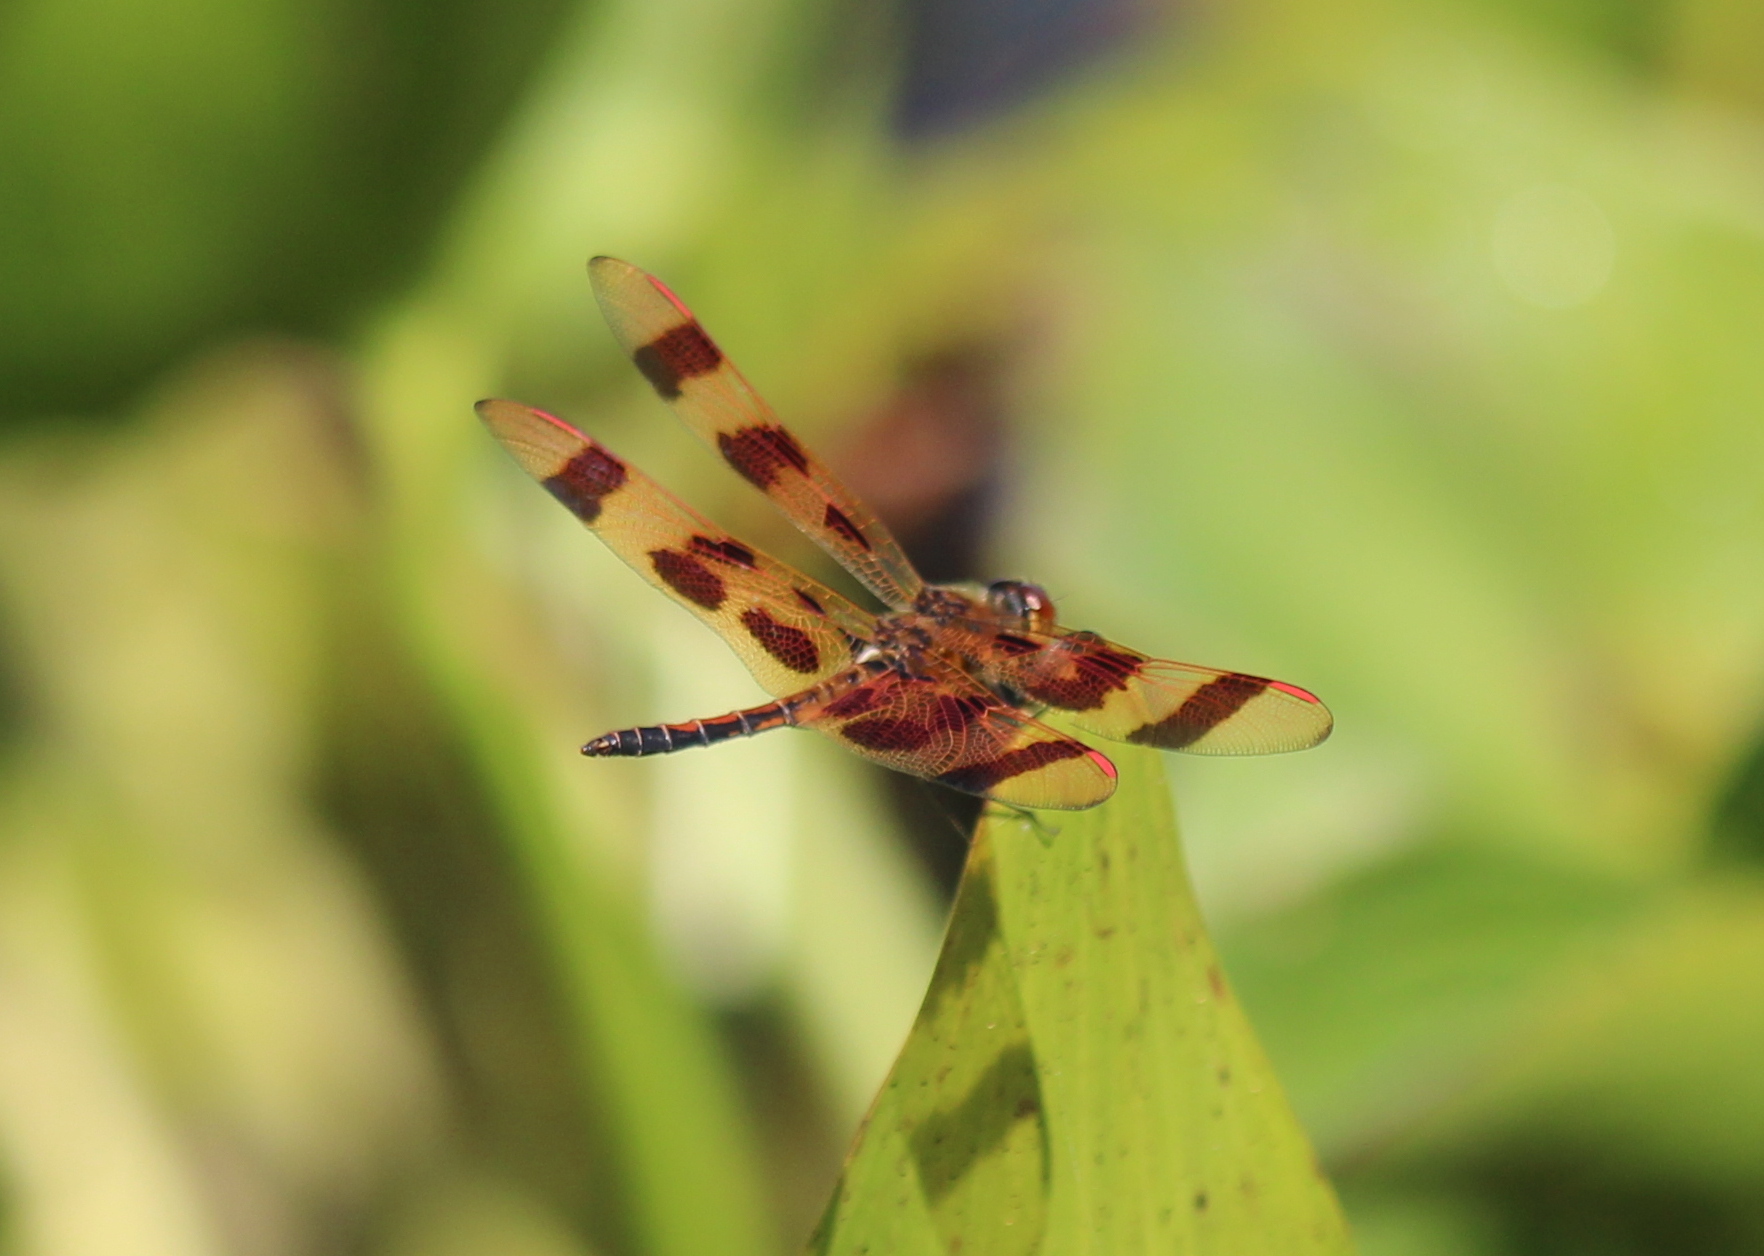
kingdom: Animalia
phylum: Arthropoda
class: Insecta
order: Odonata
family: Libellulidae
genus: Celithemis
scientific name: Celithemis eponina
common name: Halloween pennant
